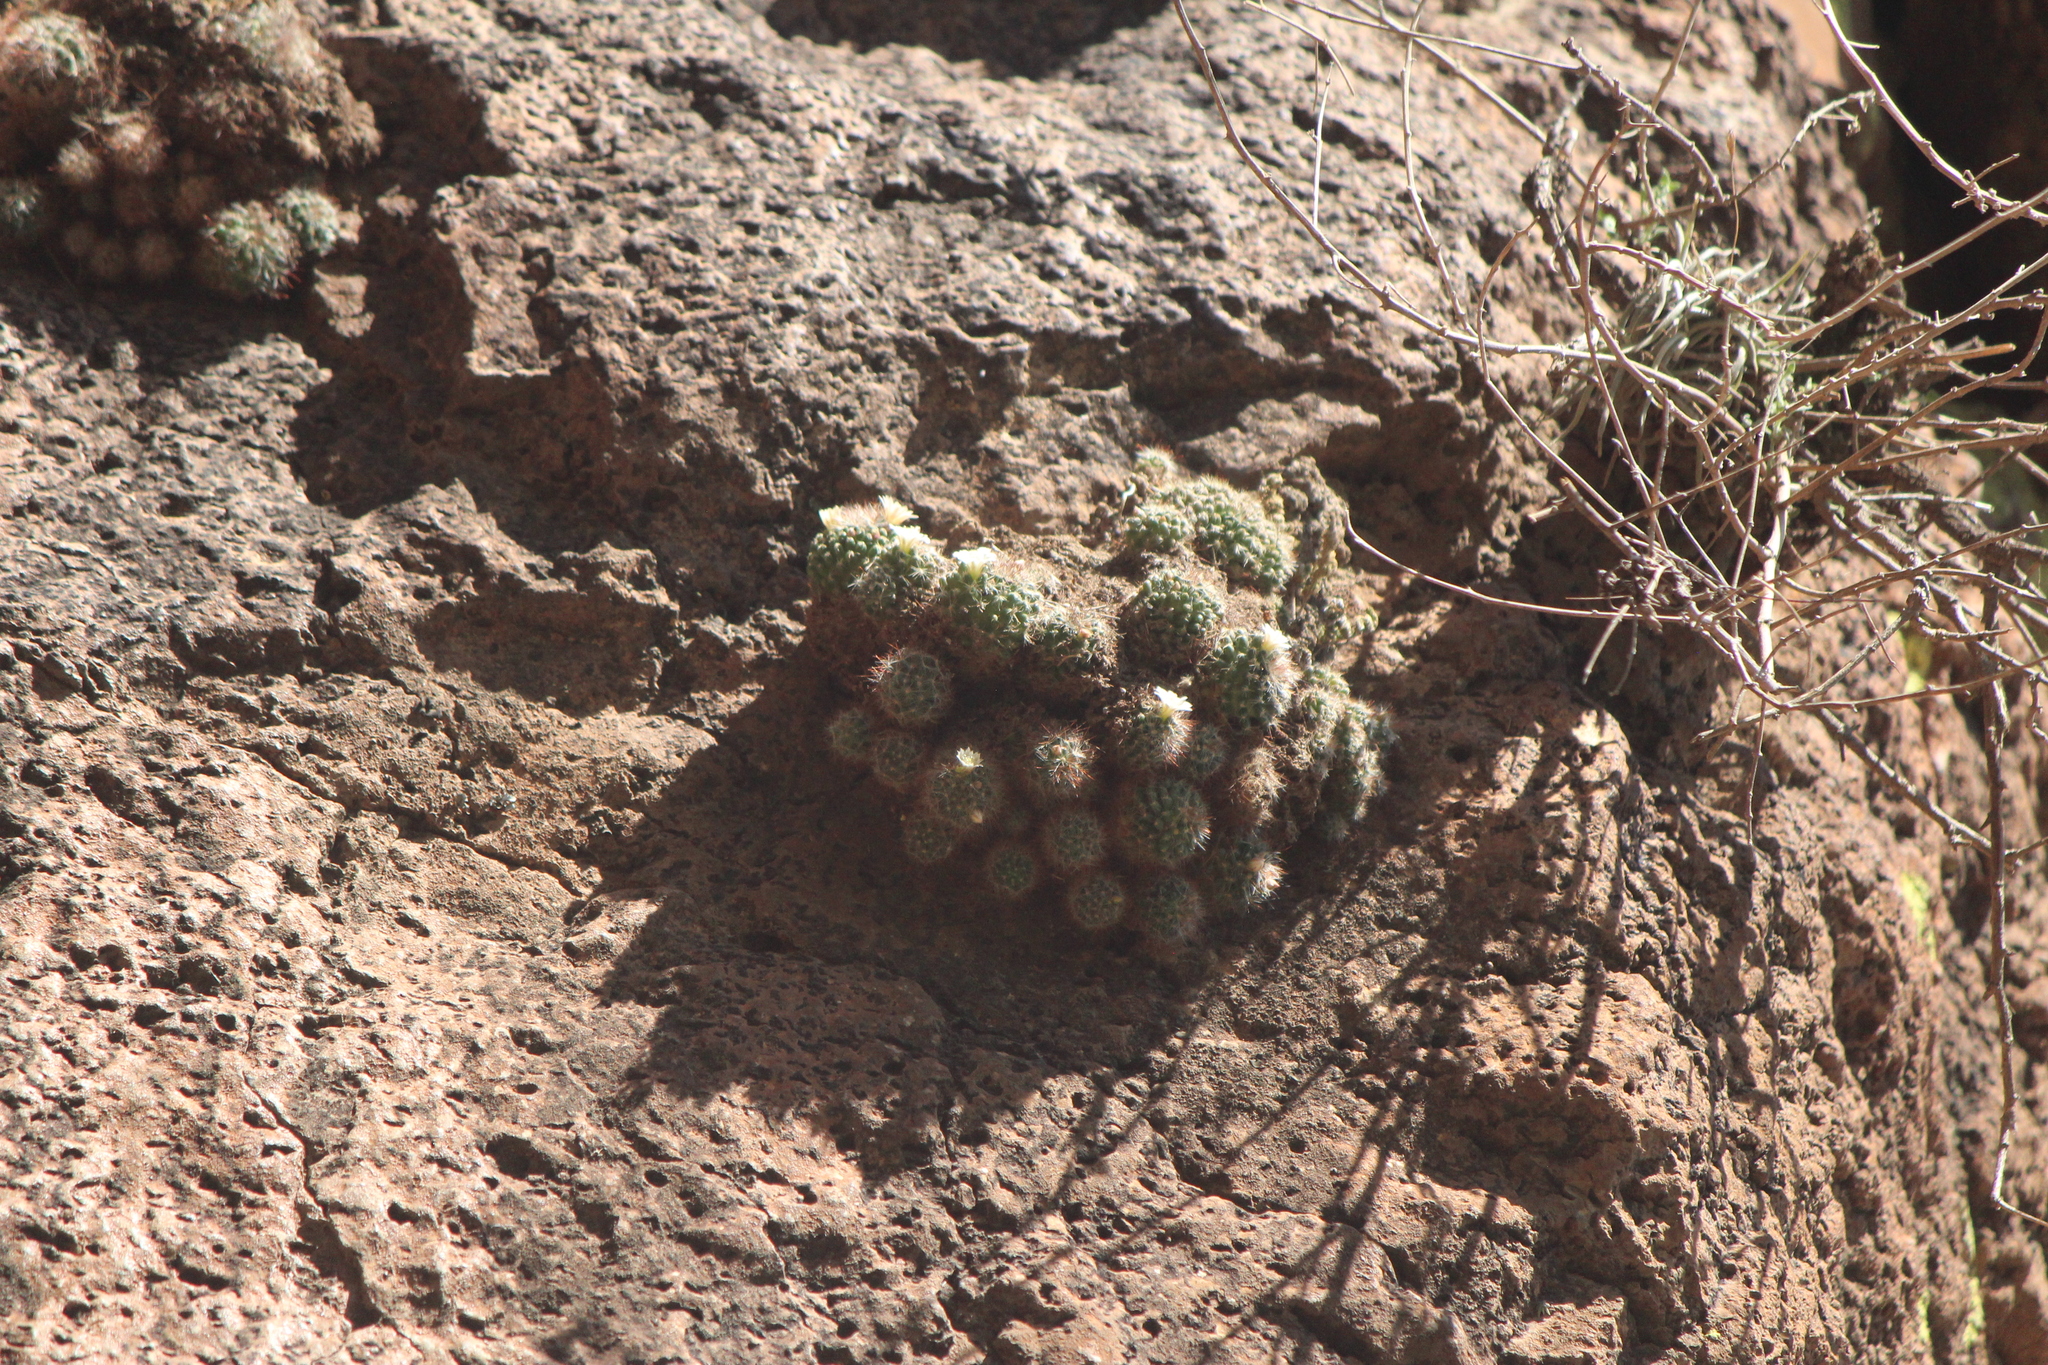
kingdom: Plantae
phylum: Tracheophyta
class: Magnoliopsida
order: Caryophyllales
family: Cactaceae
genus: Mammillaria
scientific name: Mammillaria painteri
